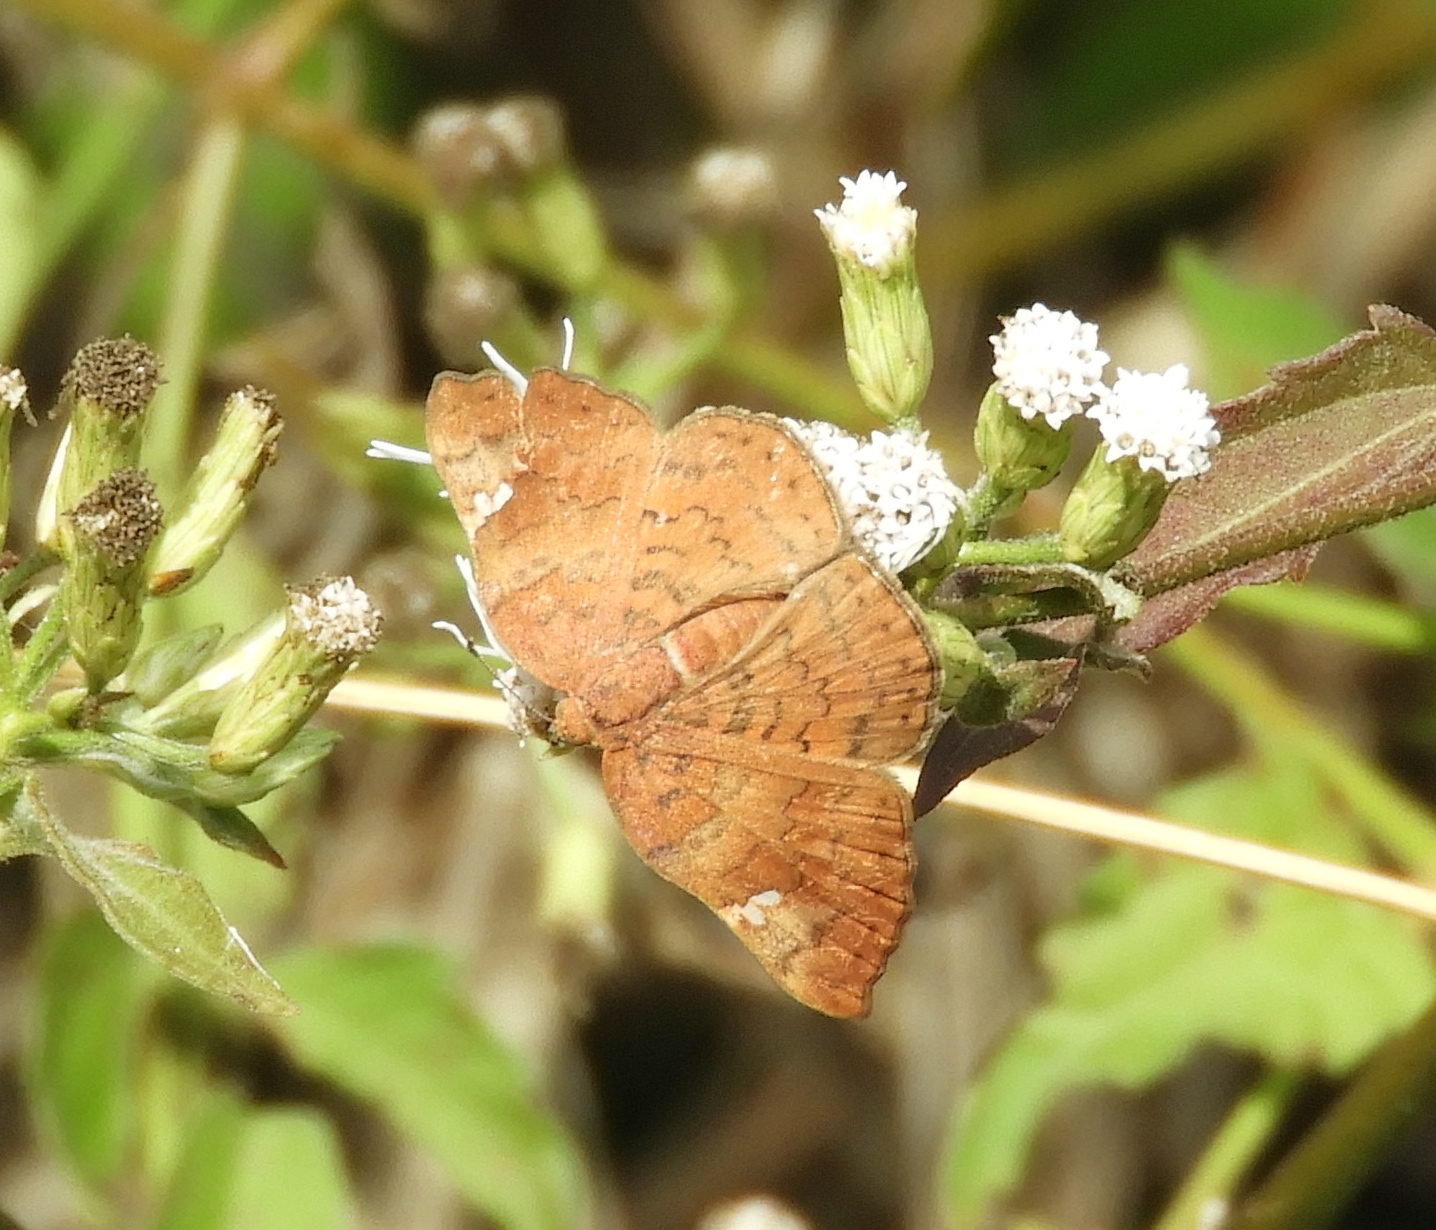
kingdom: Animalia
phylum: Arthropoda
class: Insecta
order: Lepidoptera
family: Riodinidae
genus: Curvie
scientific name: Curvie emesia
